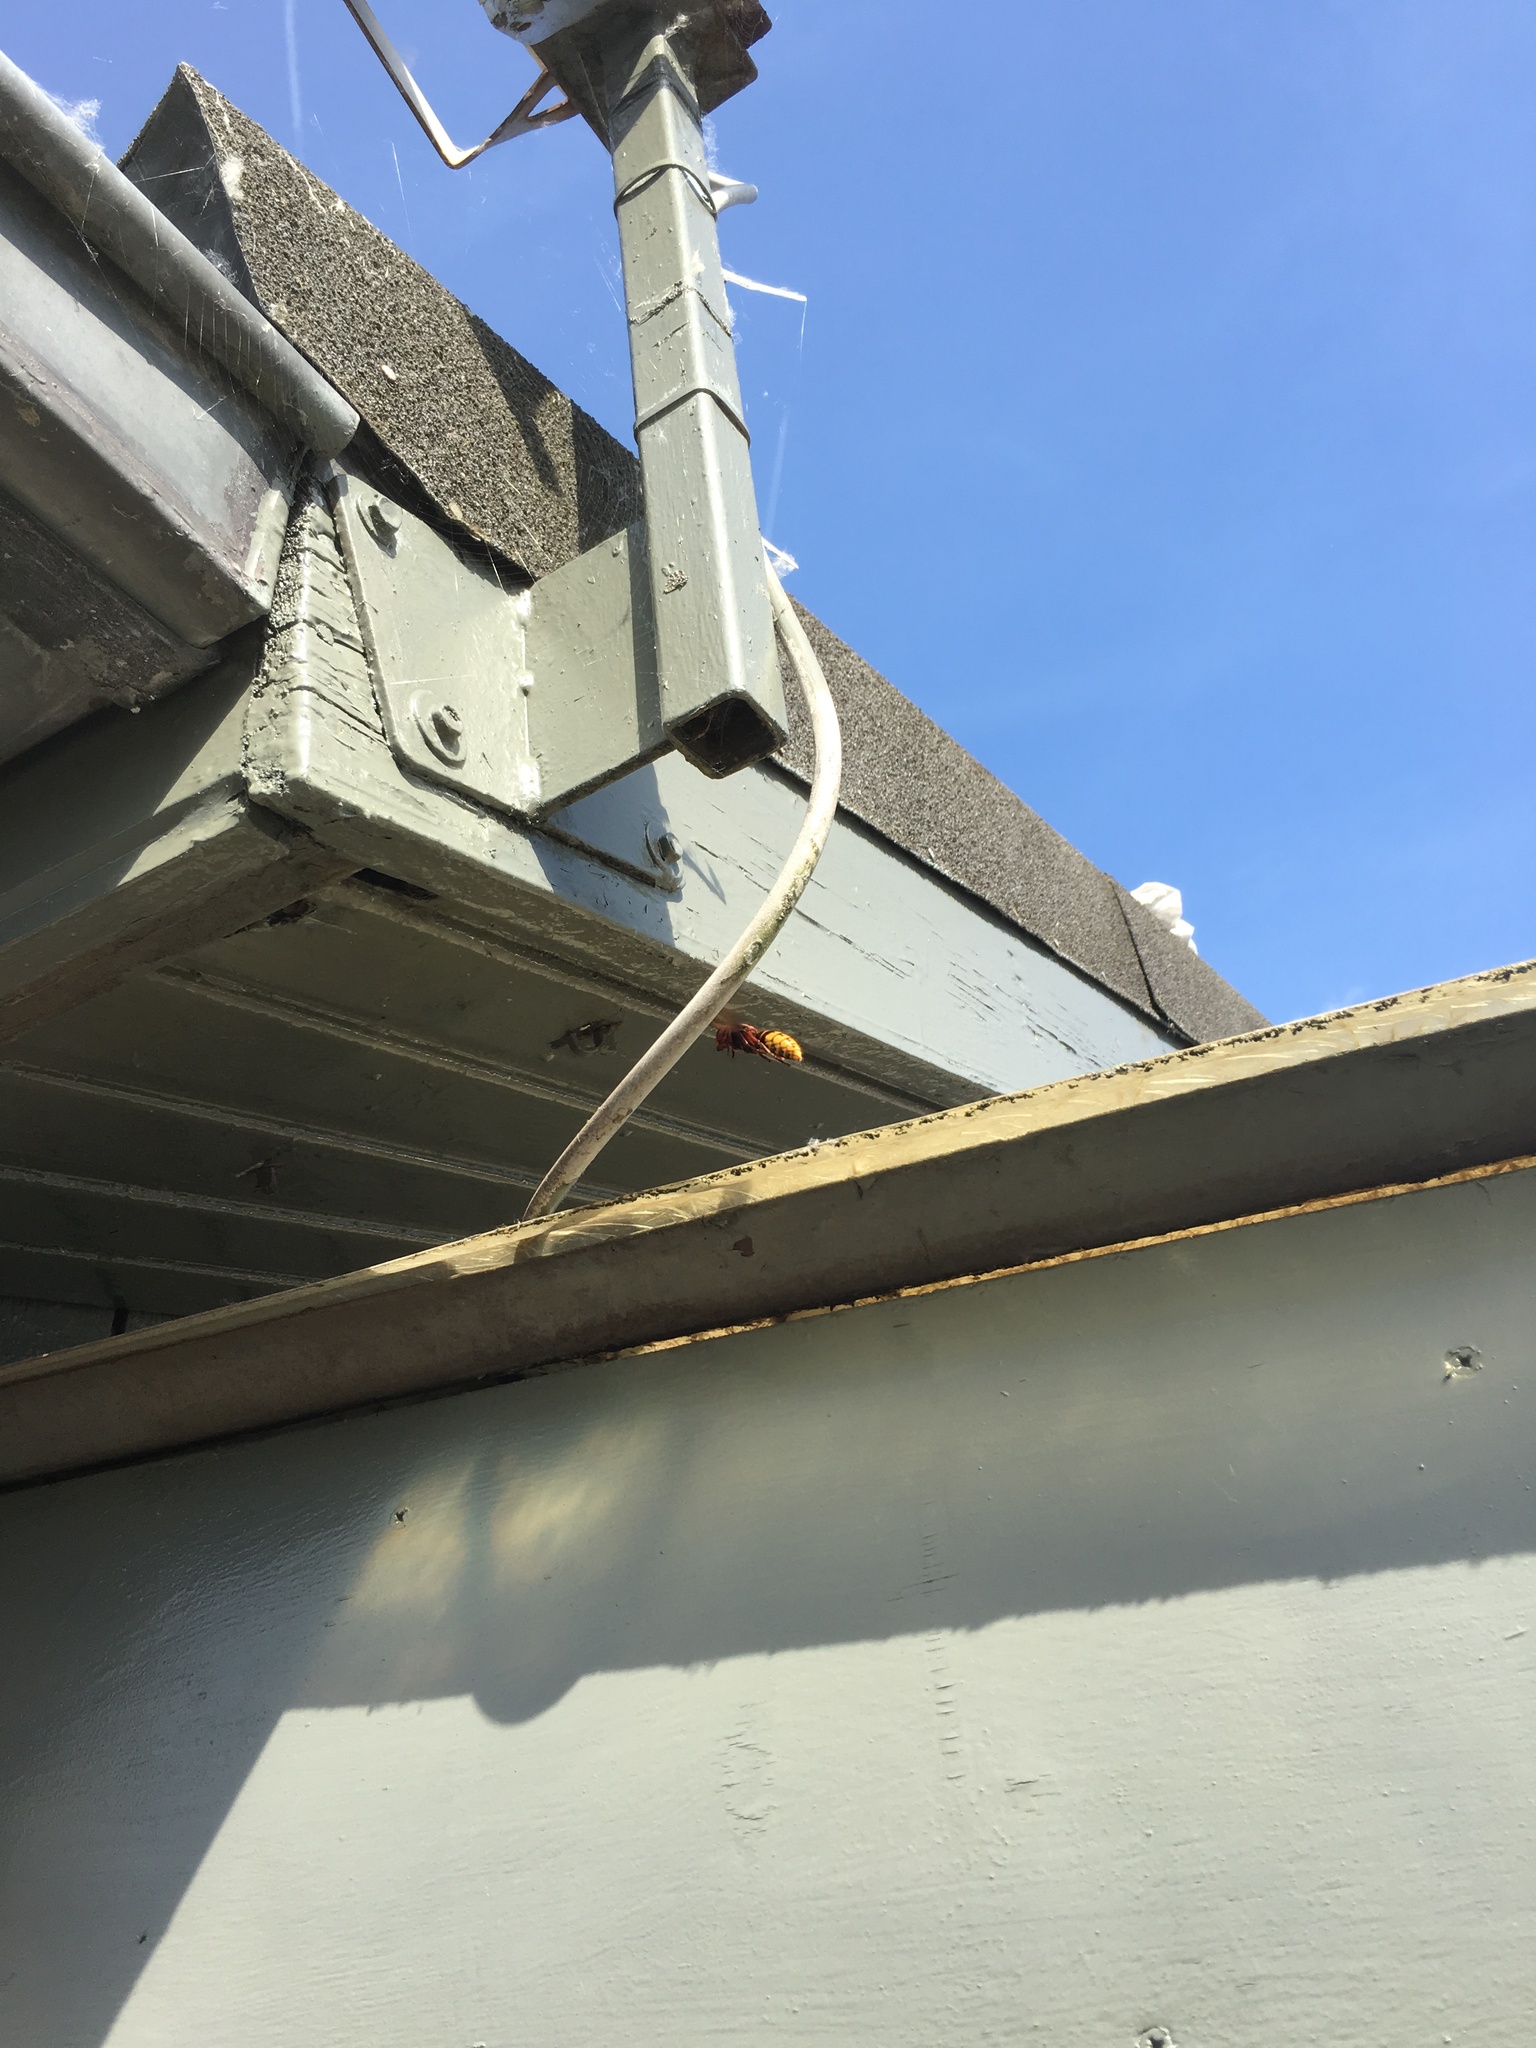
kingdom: Animalia
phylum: Arthropoda
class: Insecta
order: Hymenoptera
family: Vespidae
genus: Vespa
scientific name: Vespa crabro
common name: Hornet
